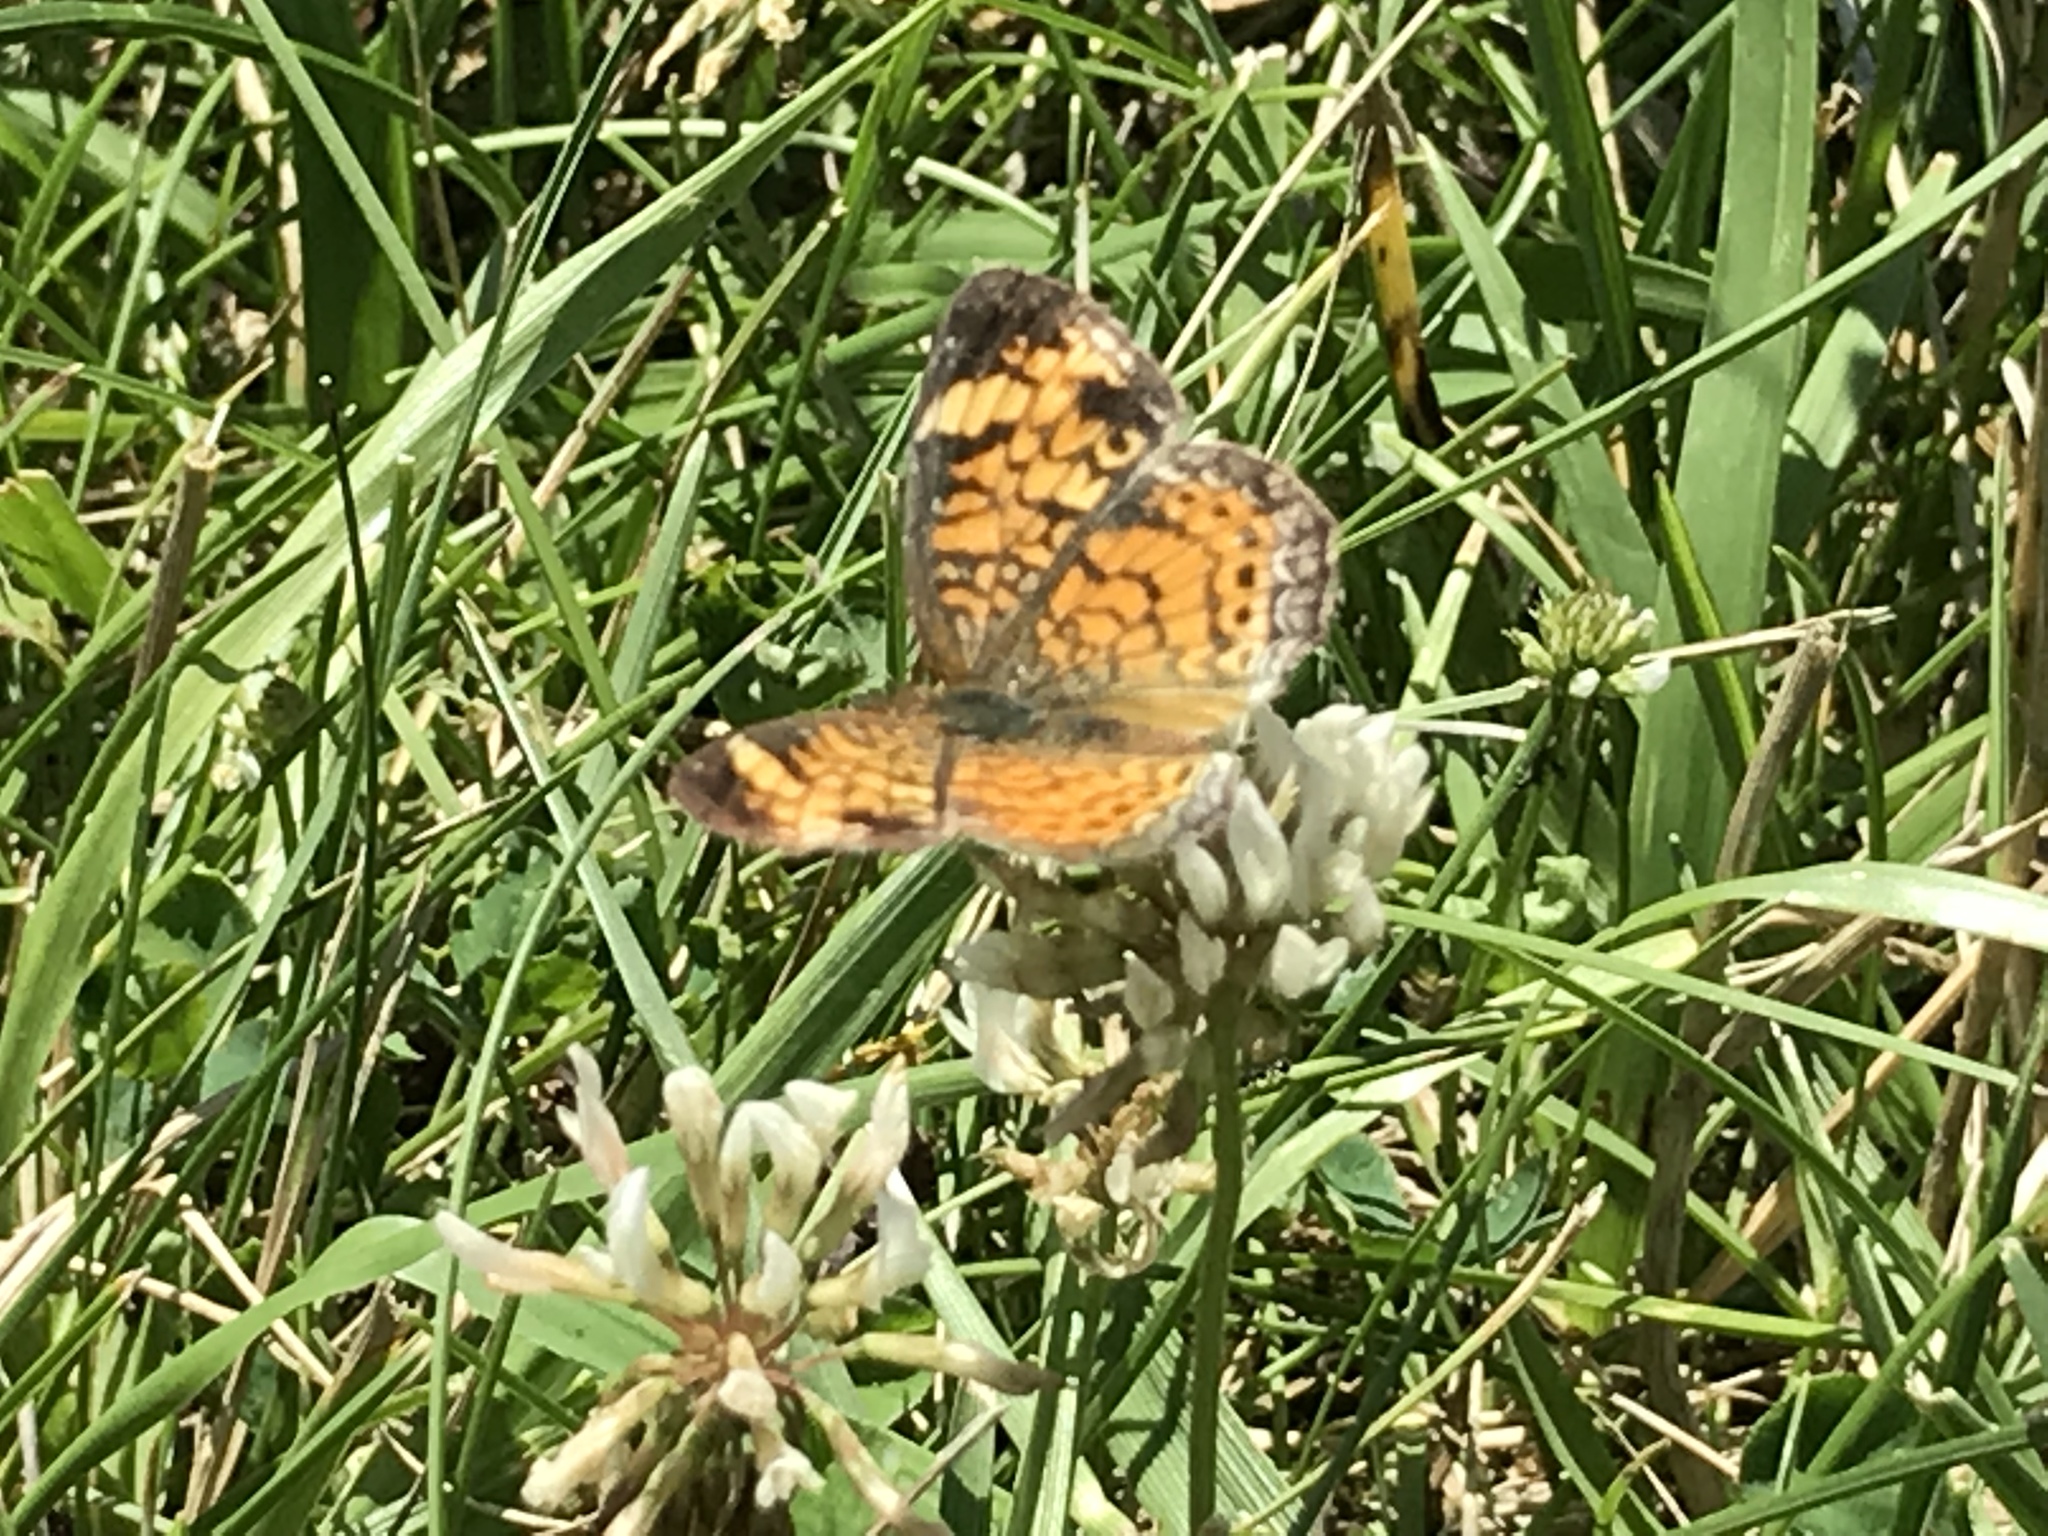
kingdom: Animalia
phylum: Arthropoda
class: Insecta
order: Lepidoptera
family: Nymphalidae
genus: Phyciodes
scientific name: Phyciodes tharos
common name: Pearl crescent
